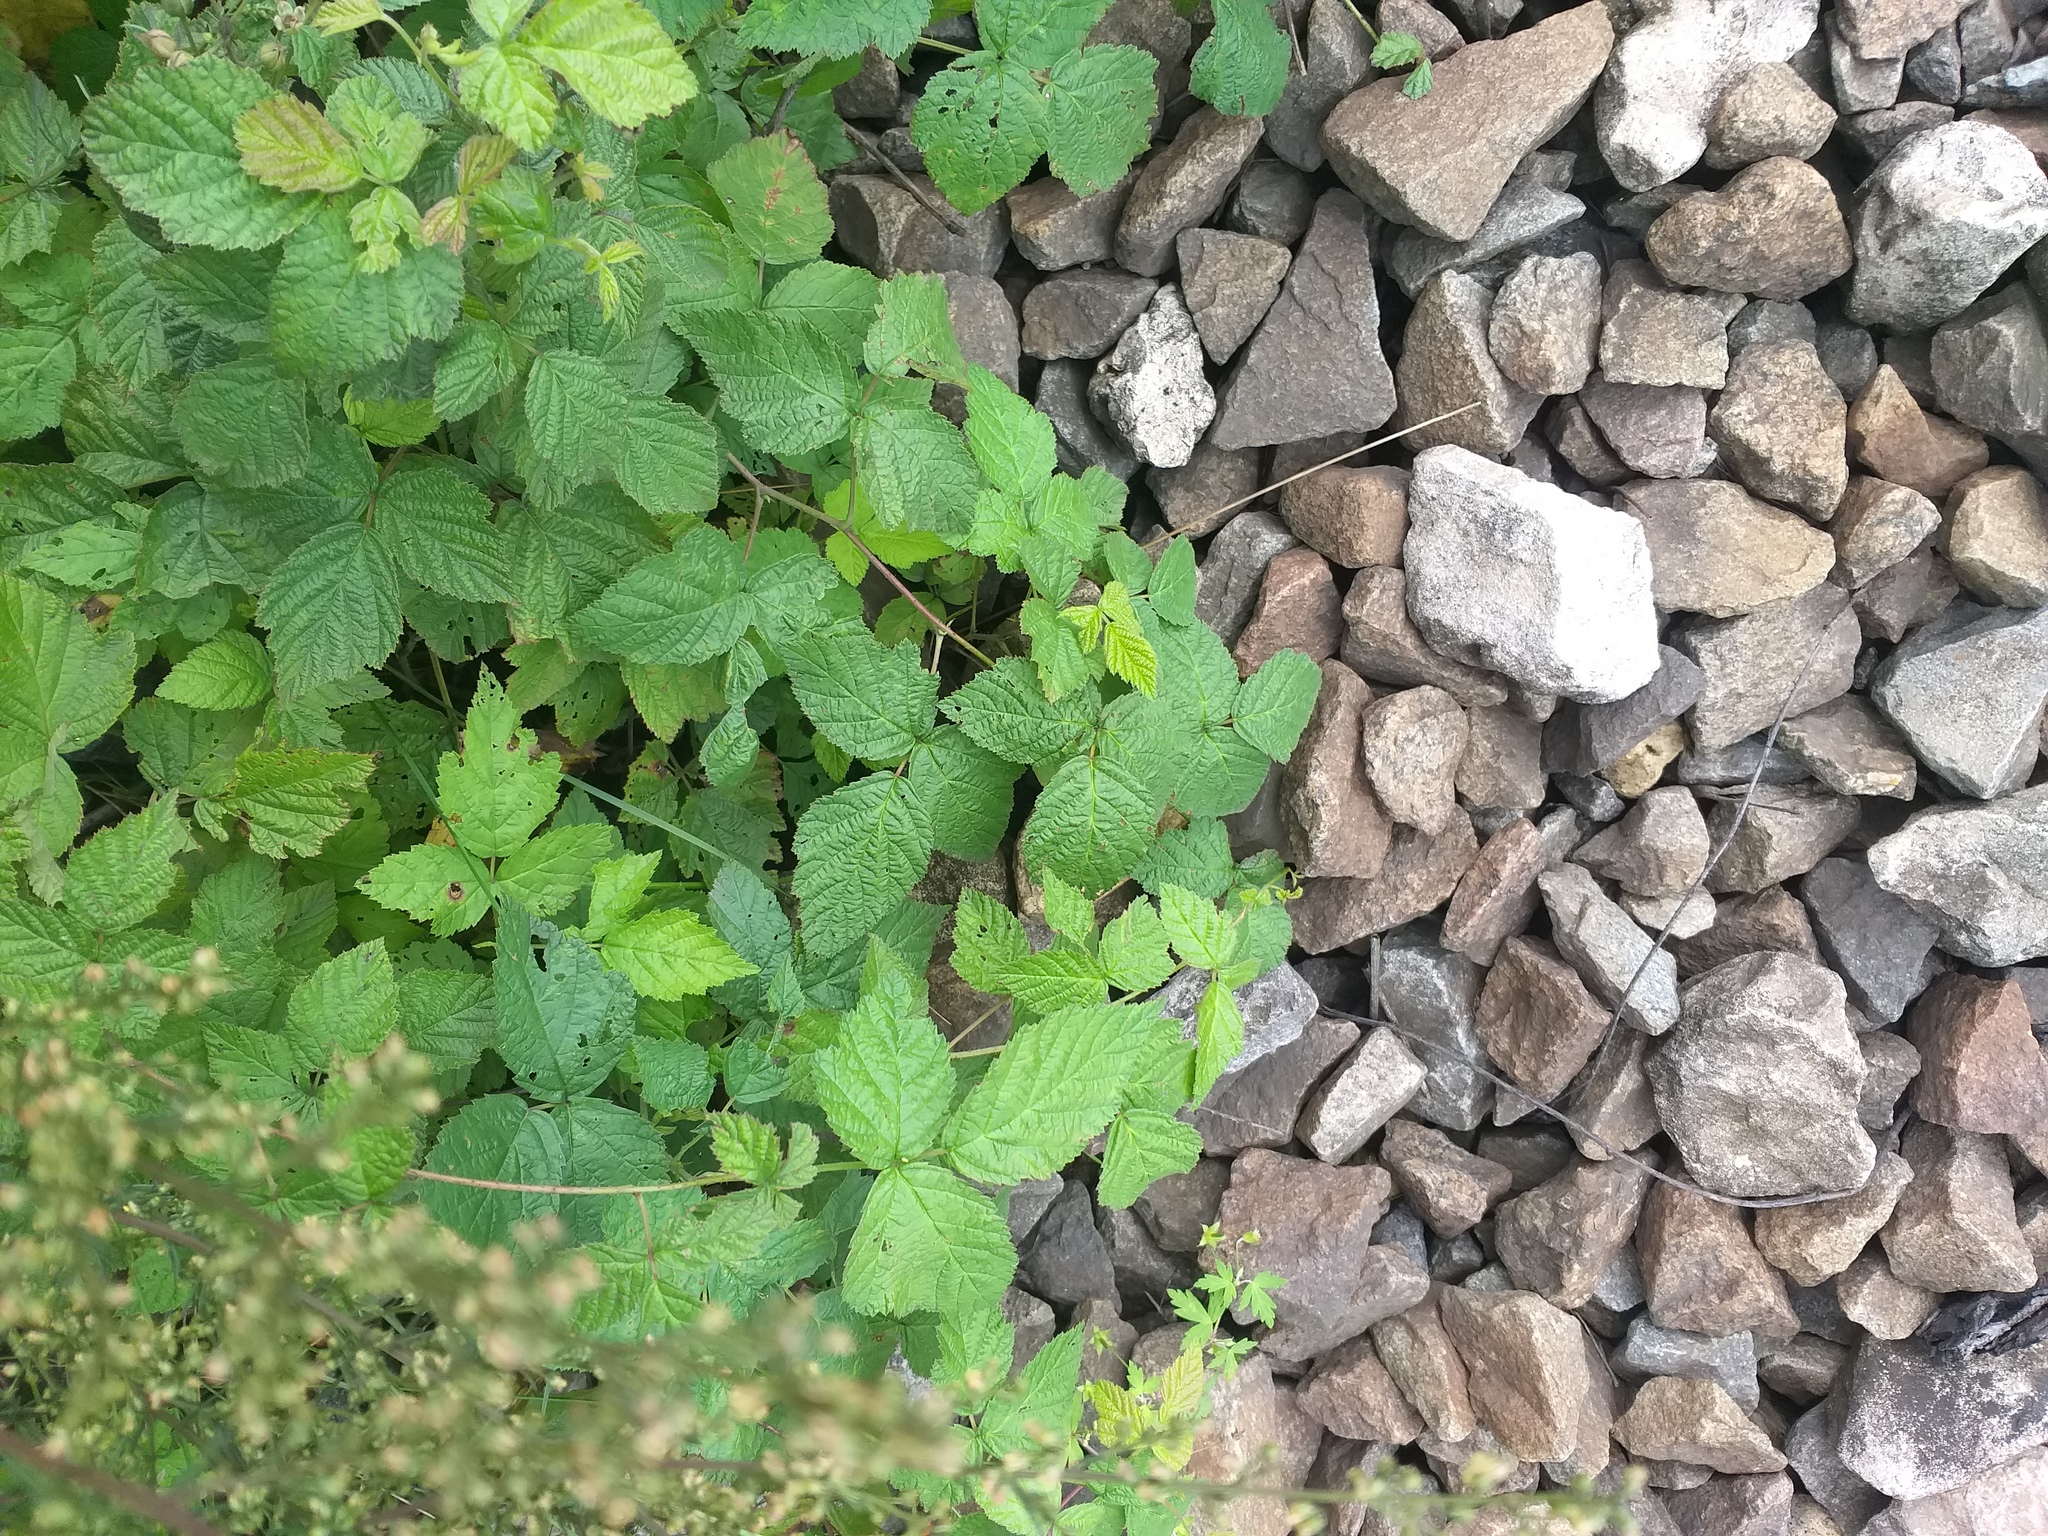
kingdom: Plantae
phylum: Tracheophyta
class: Magnoliopsida
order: Rosales
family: Rosaceae
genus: Rubus
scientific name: Rubus caesius
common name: Dewberry
